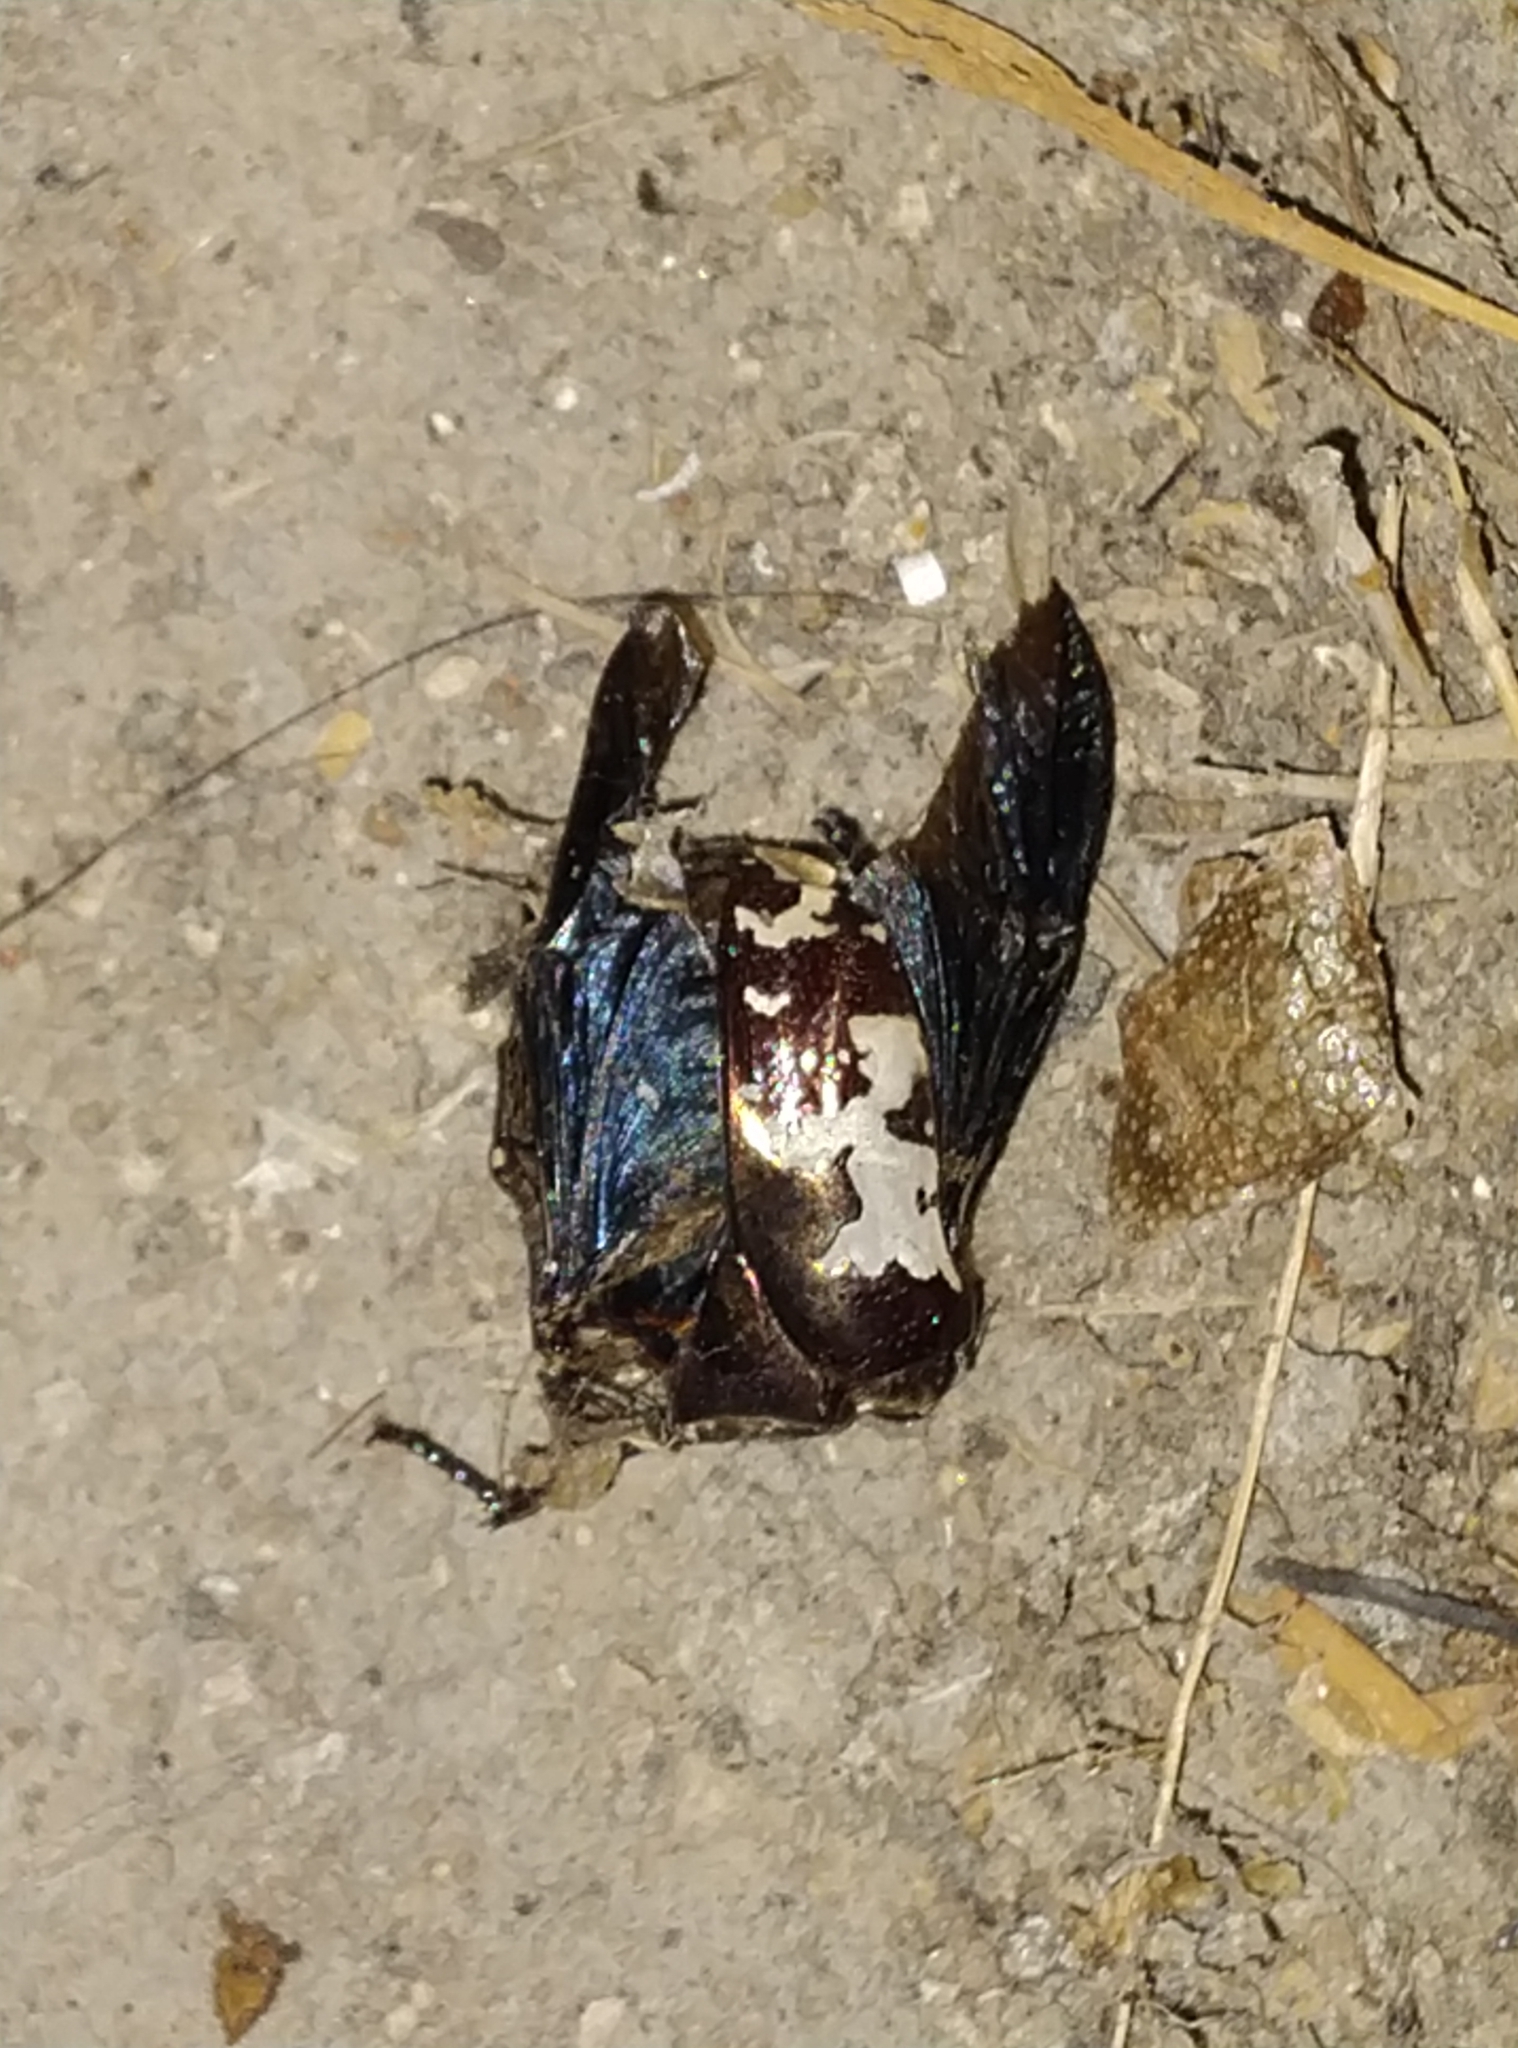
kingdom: Animalia
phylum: Arthropoda
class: Insecta
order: Coleoptera
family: Scarabaeidae
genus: Protaetia
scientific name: Protaetia aurichalcea
